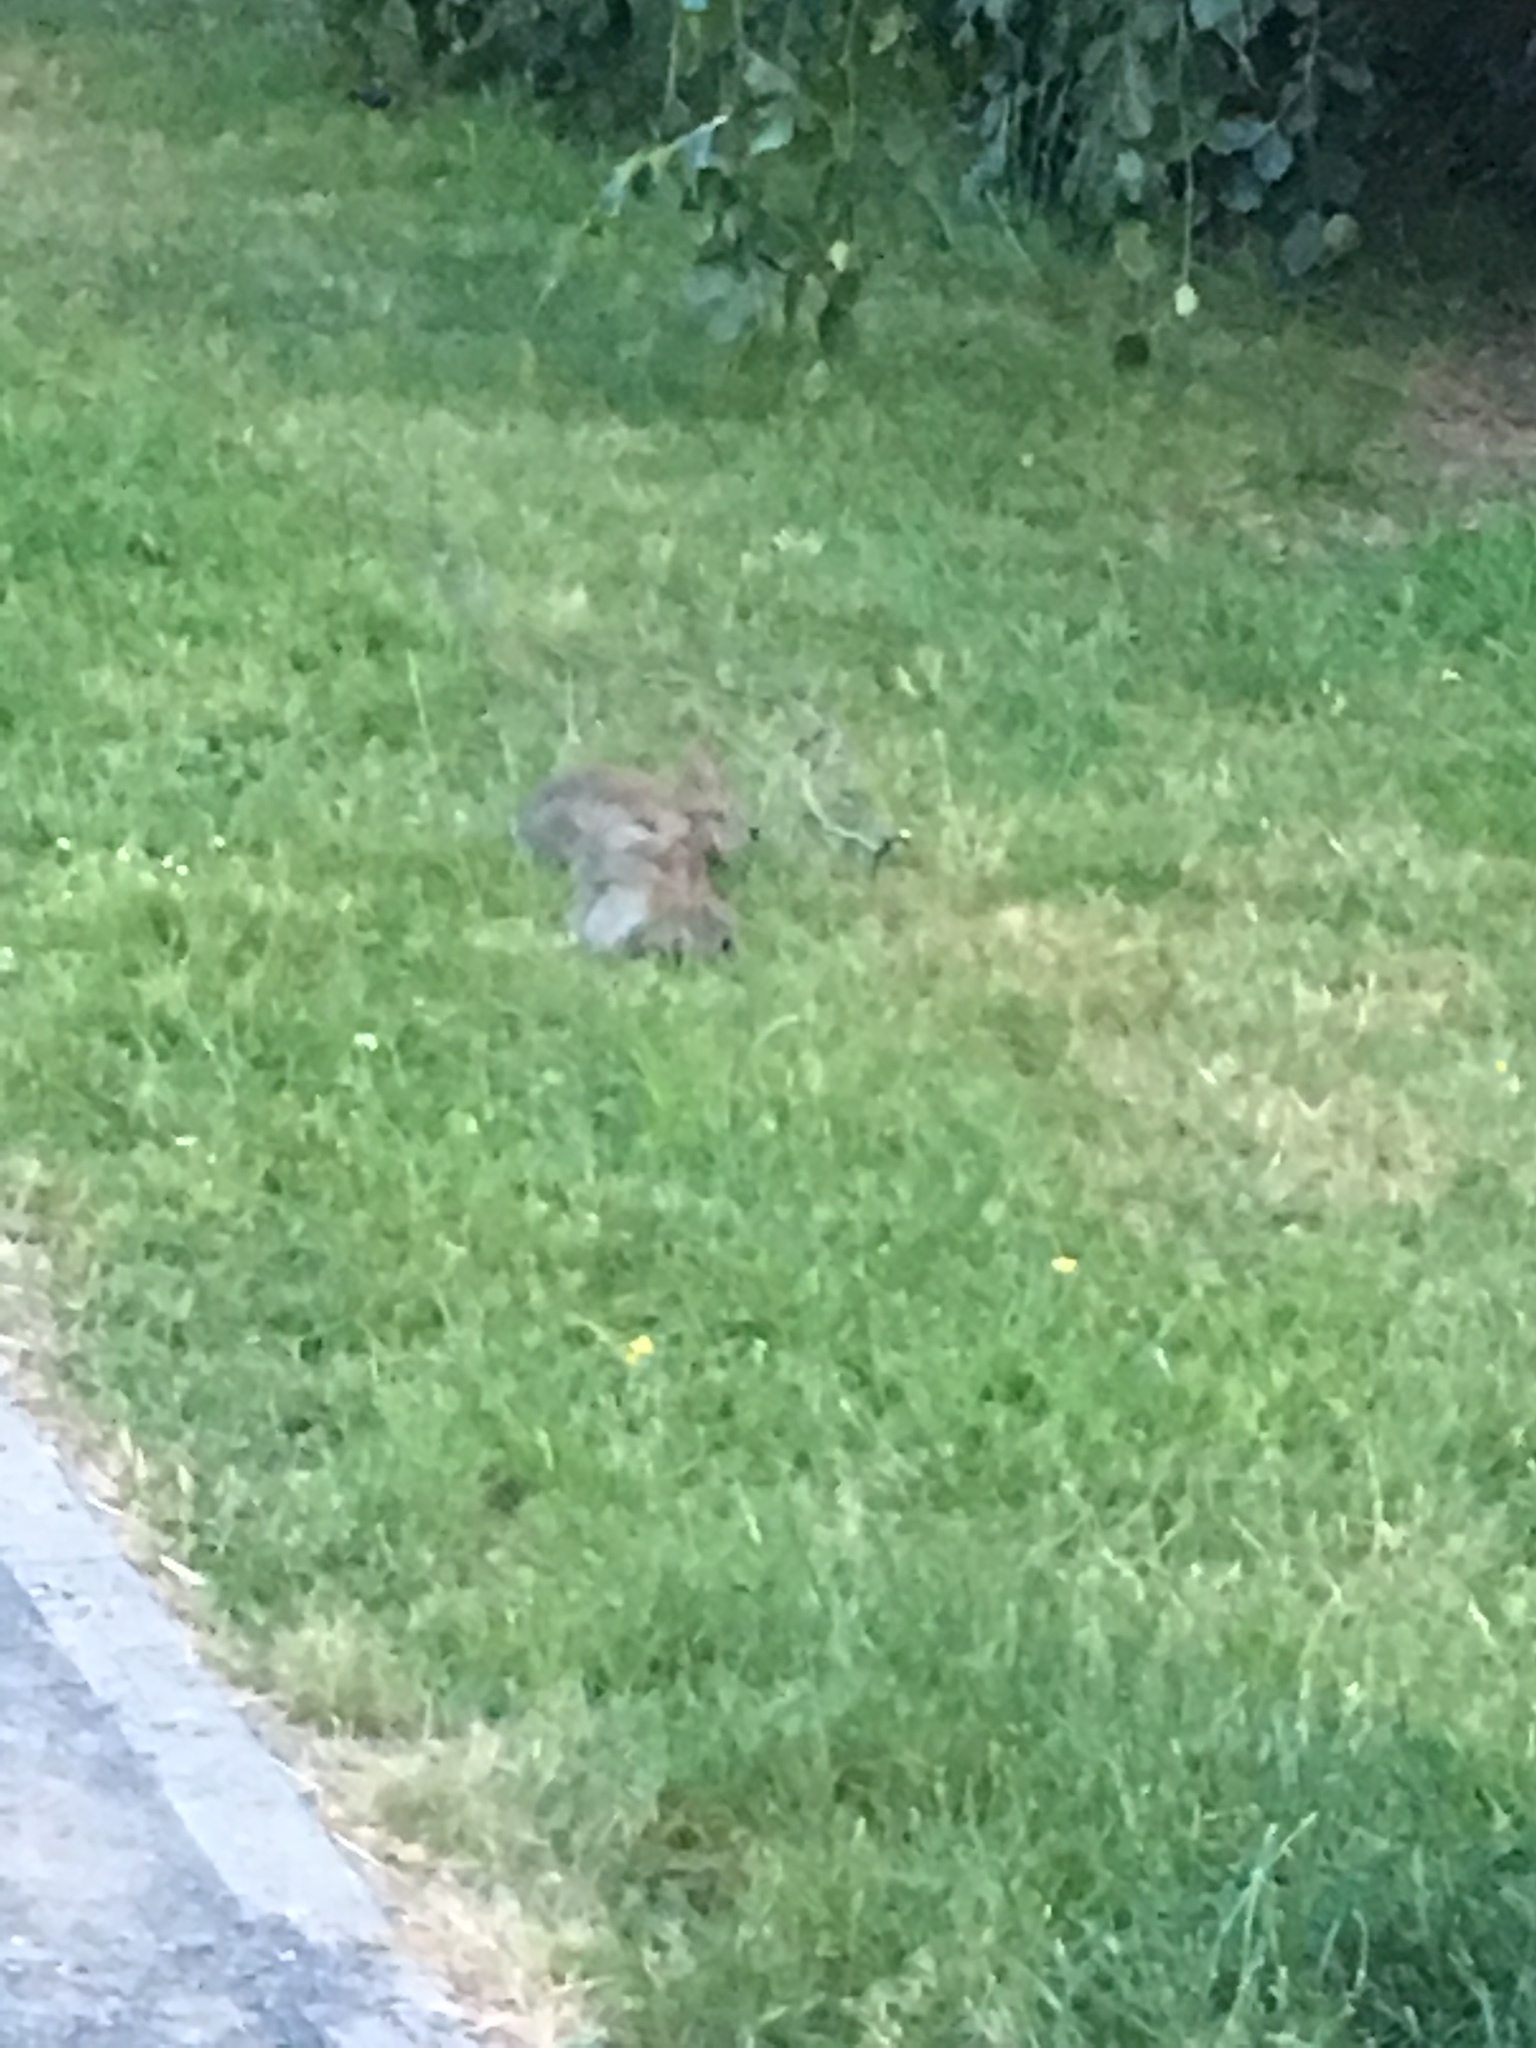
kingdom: Animalia
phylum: Chordata
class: Mammalia
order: Lagomorpha
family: Leporidae
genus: Oryctolagus
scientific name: Oryctolagus cuniculus
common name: European rabbit
